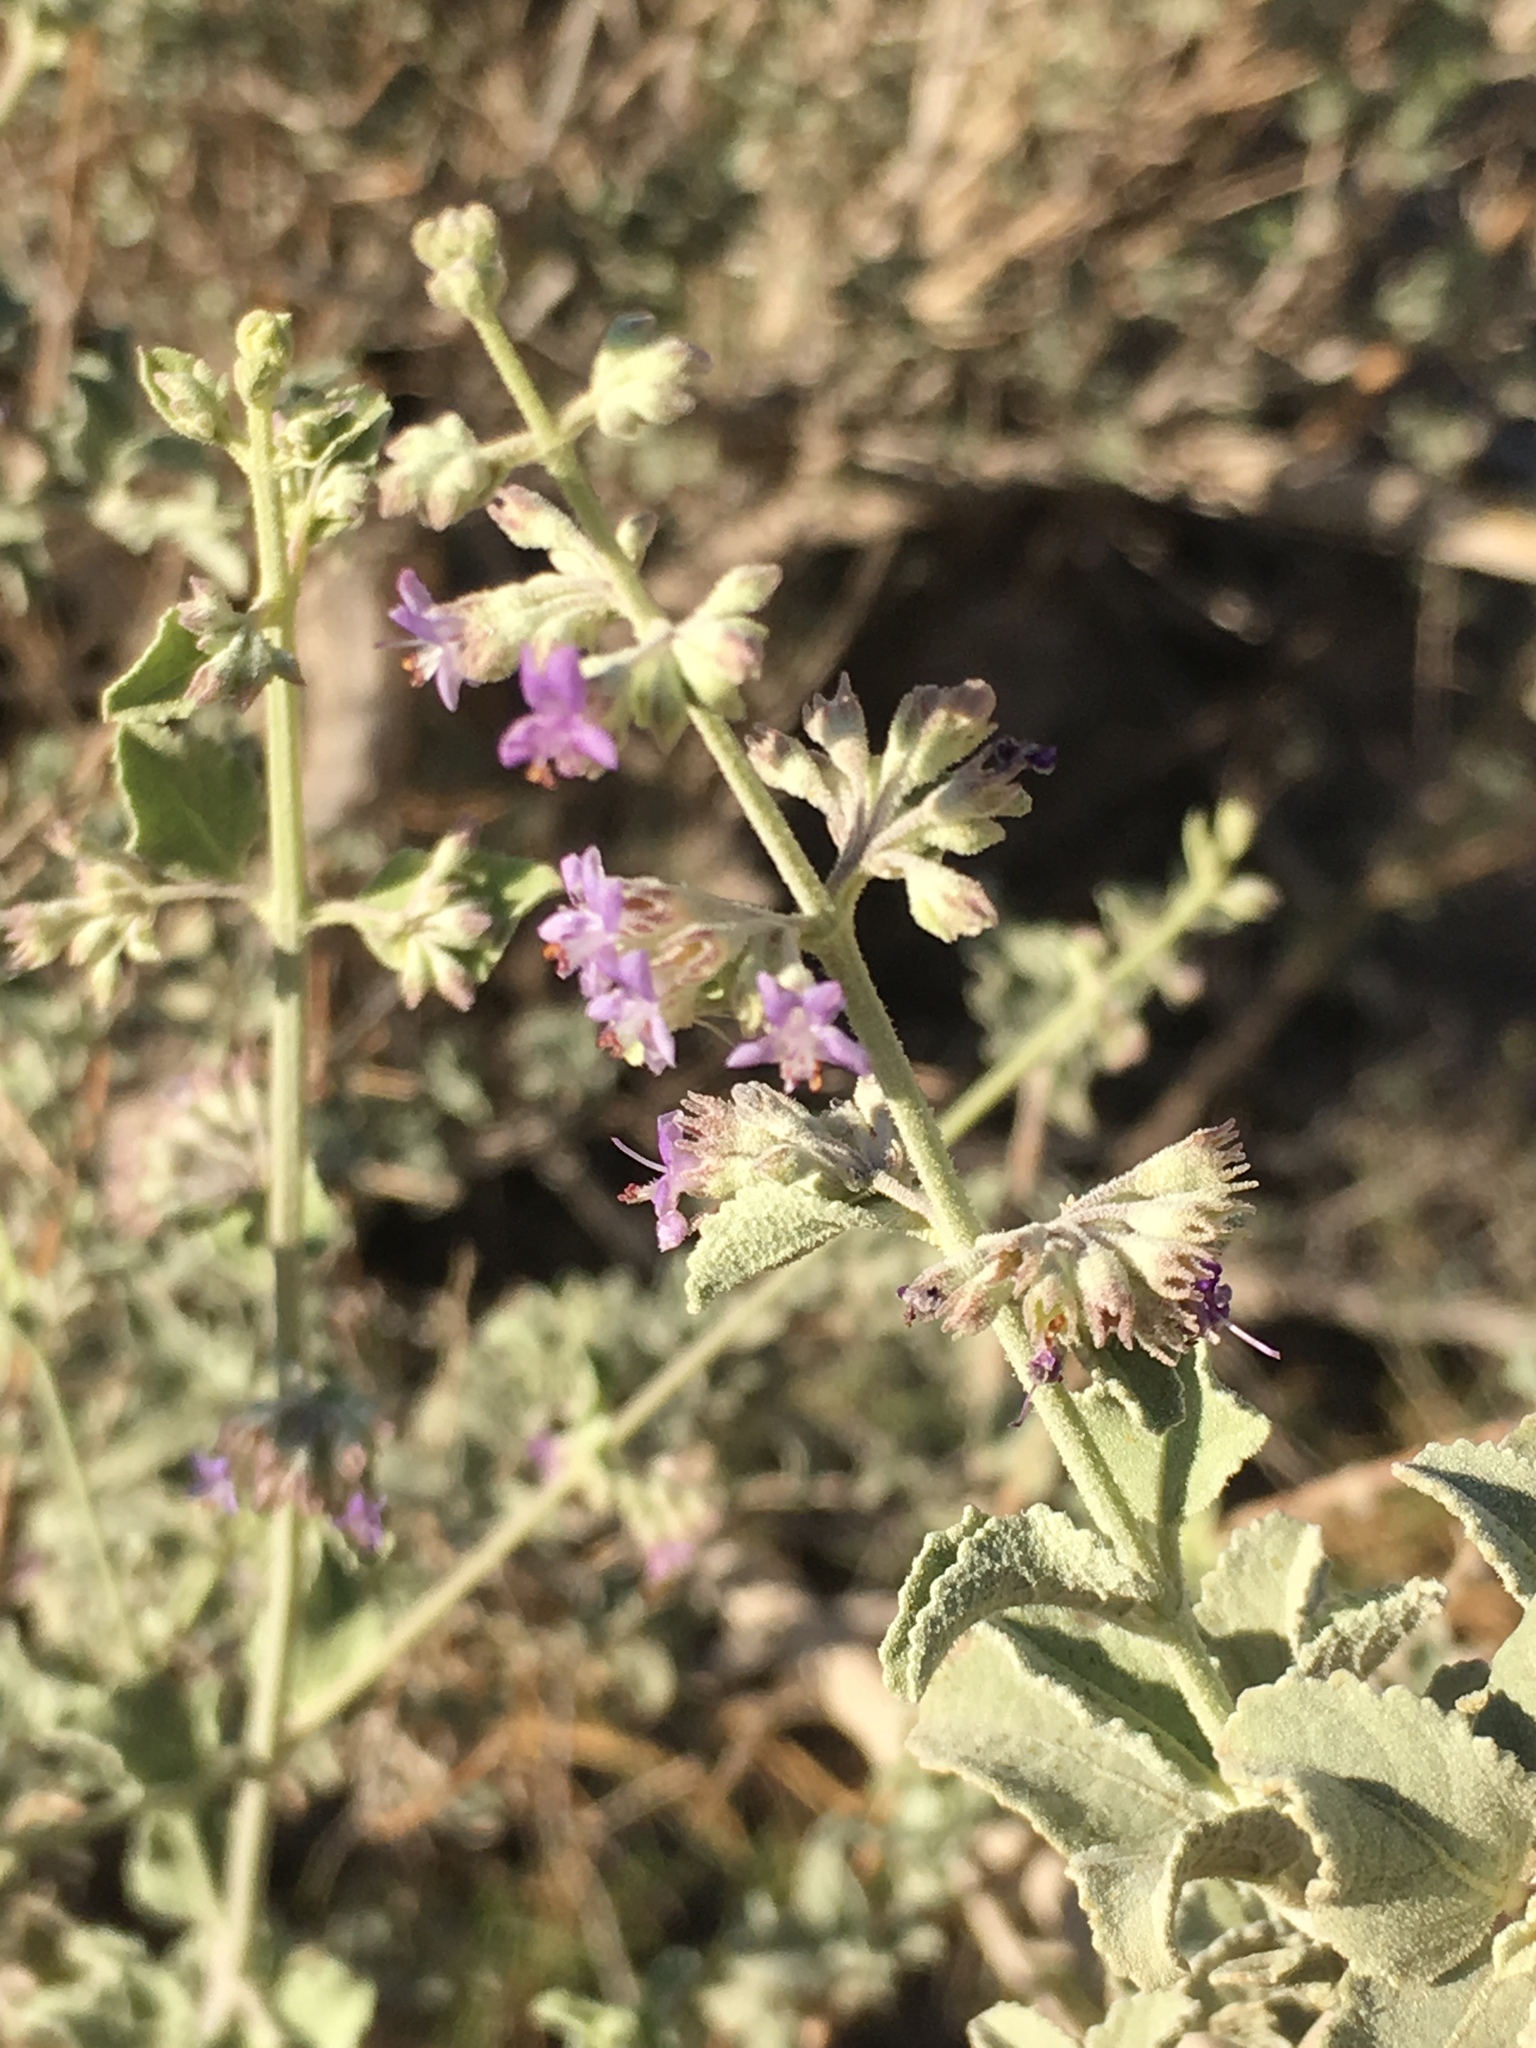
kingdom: Plantae
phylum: Tracheophyta
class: Magnoliopsida
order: Lamiales
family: Lamiaceae
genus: Condea
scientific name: Condea emoryi
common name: Chia
